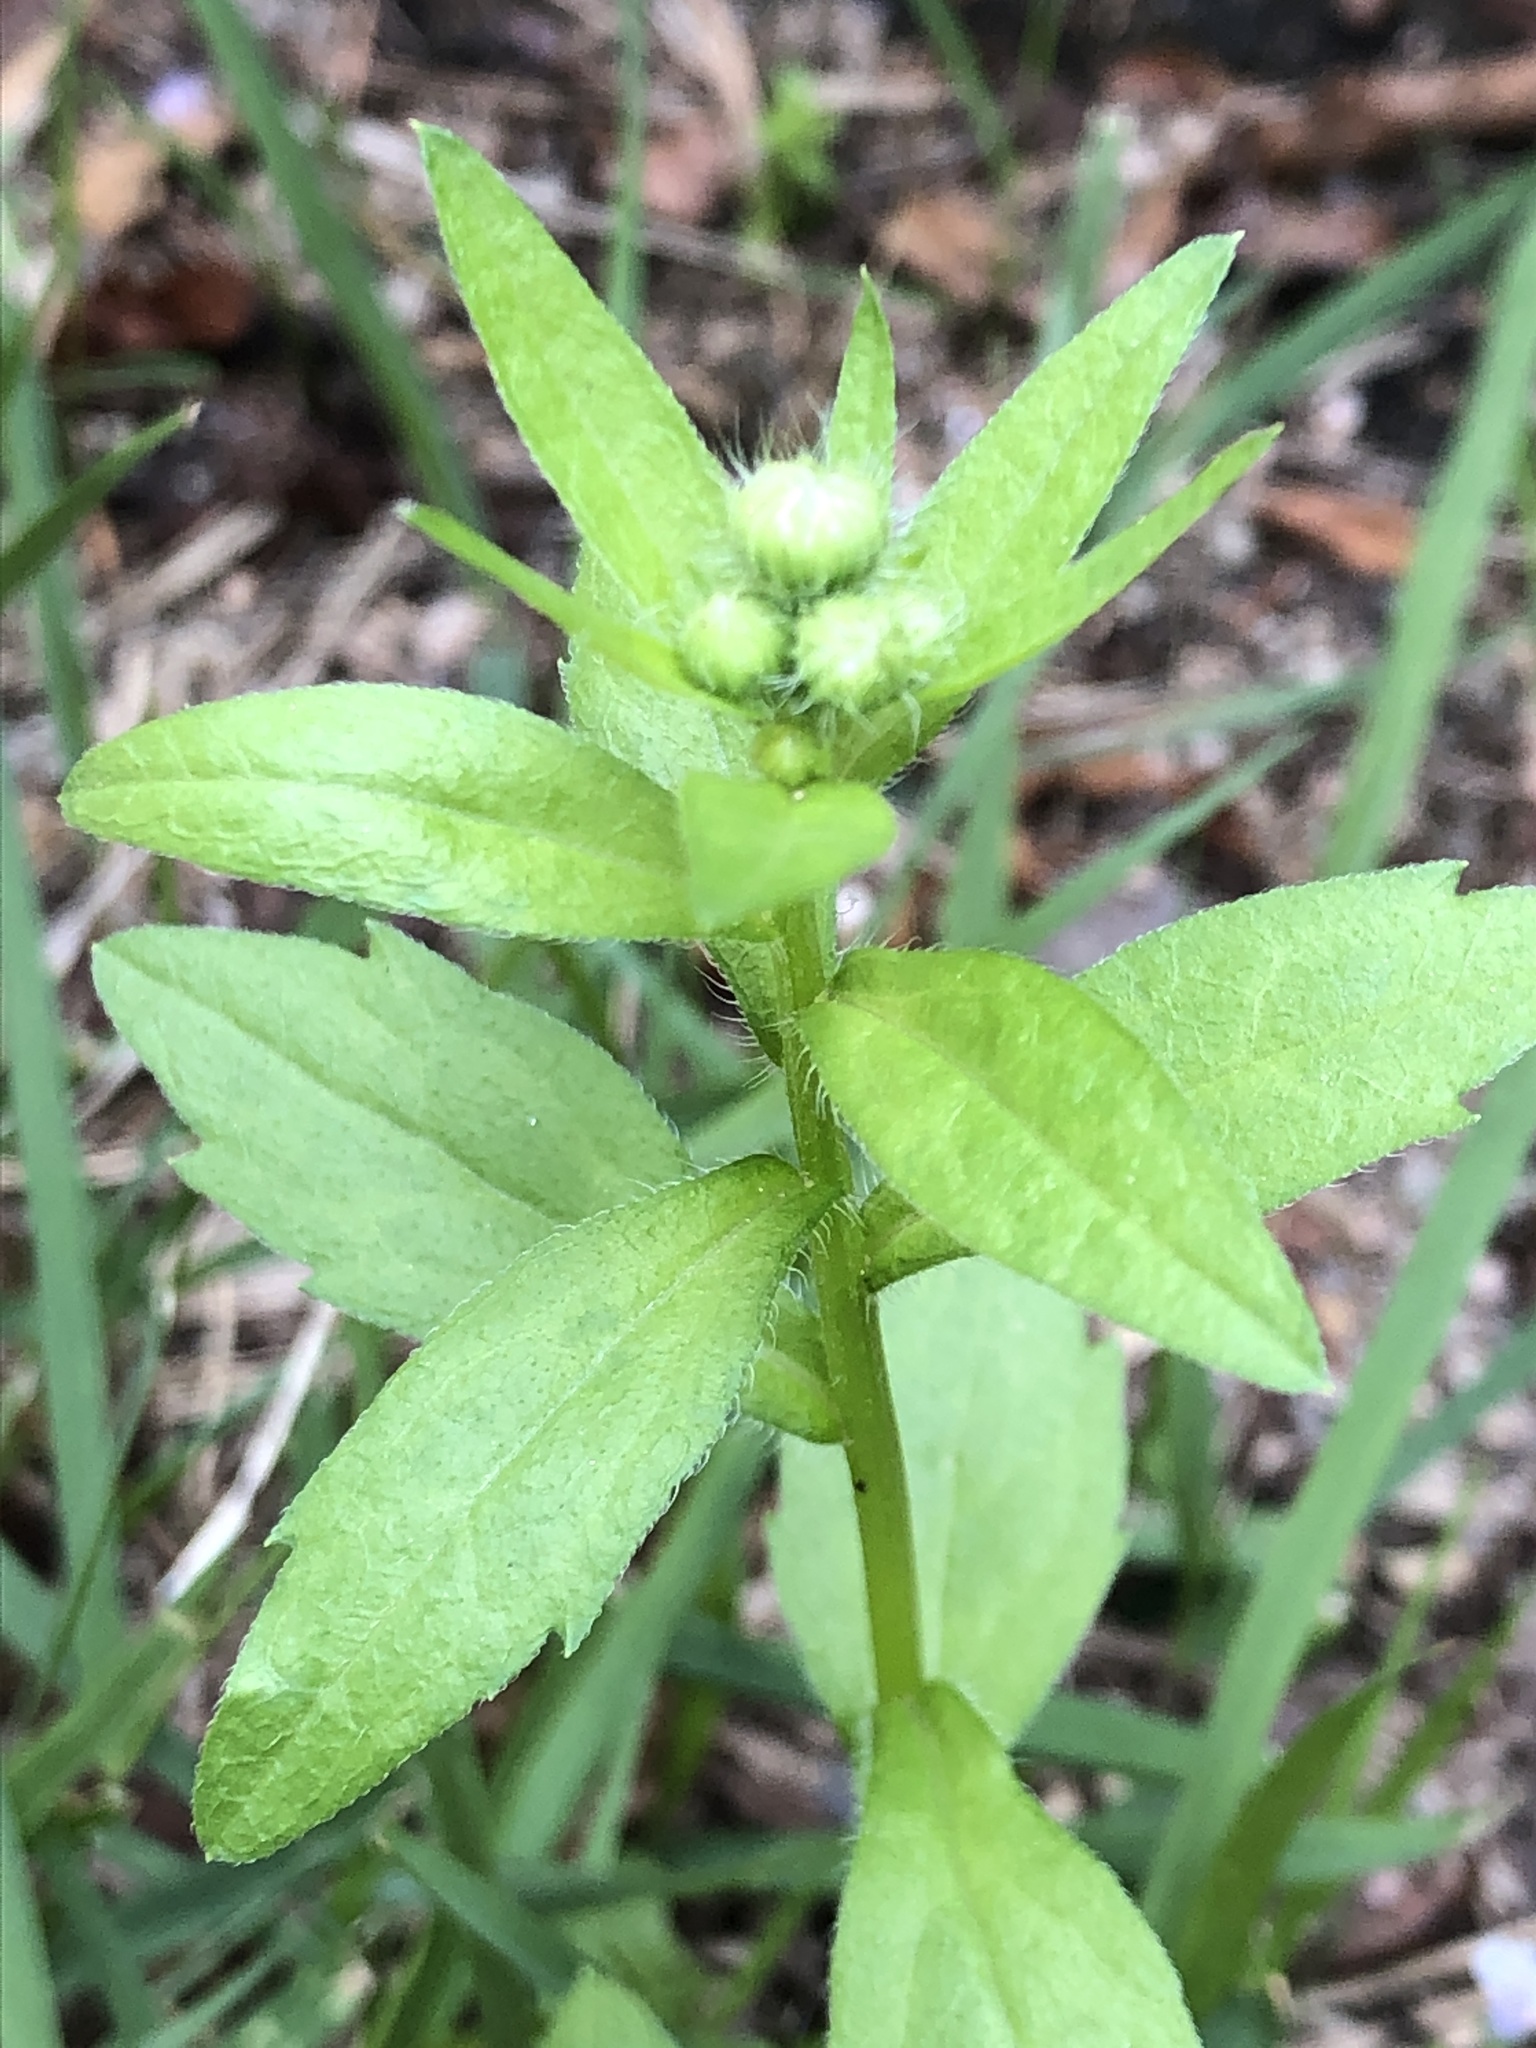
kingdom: Plantae
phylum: Tracheophyta
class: Magnoliopsida
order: Asterales
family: Asteraceae
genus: Erigeron
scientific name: Erigeron annuus
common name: Tall fleabane
